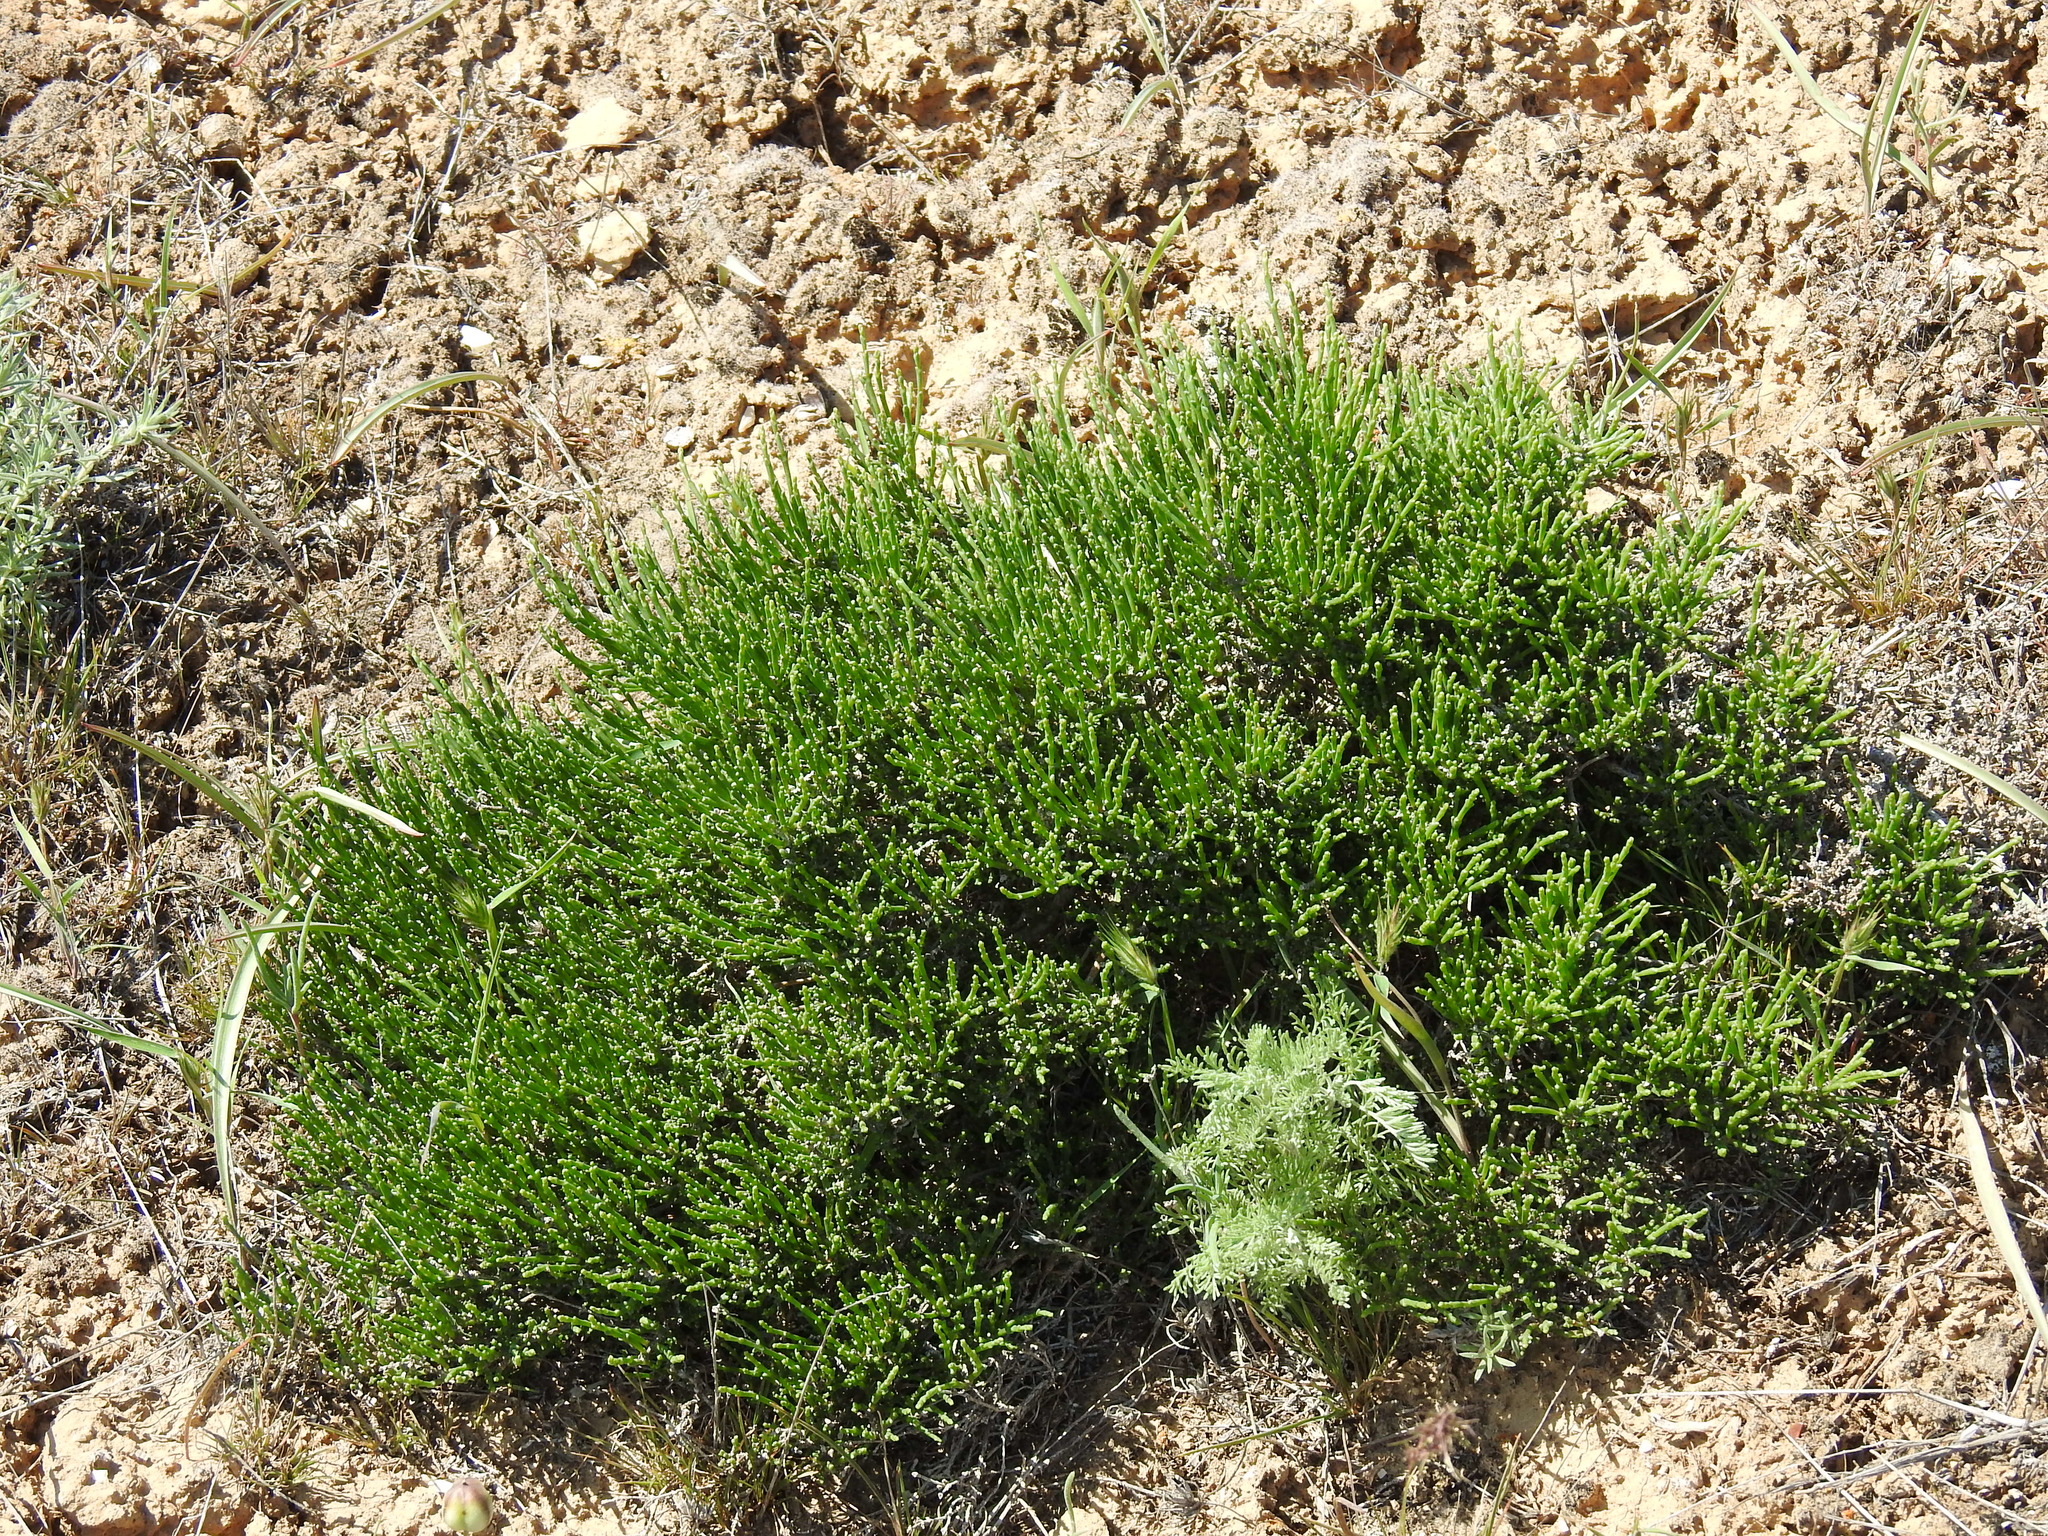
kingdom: Plantae
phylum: Tracheophyta
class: Magnoliopsida
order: Caryophyllales
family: Amaranthaceae
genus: Anabasis
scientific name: Anabasis salsa
